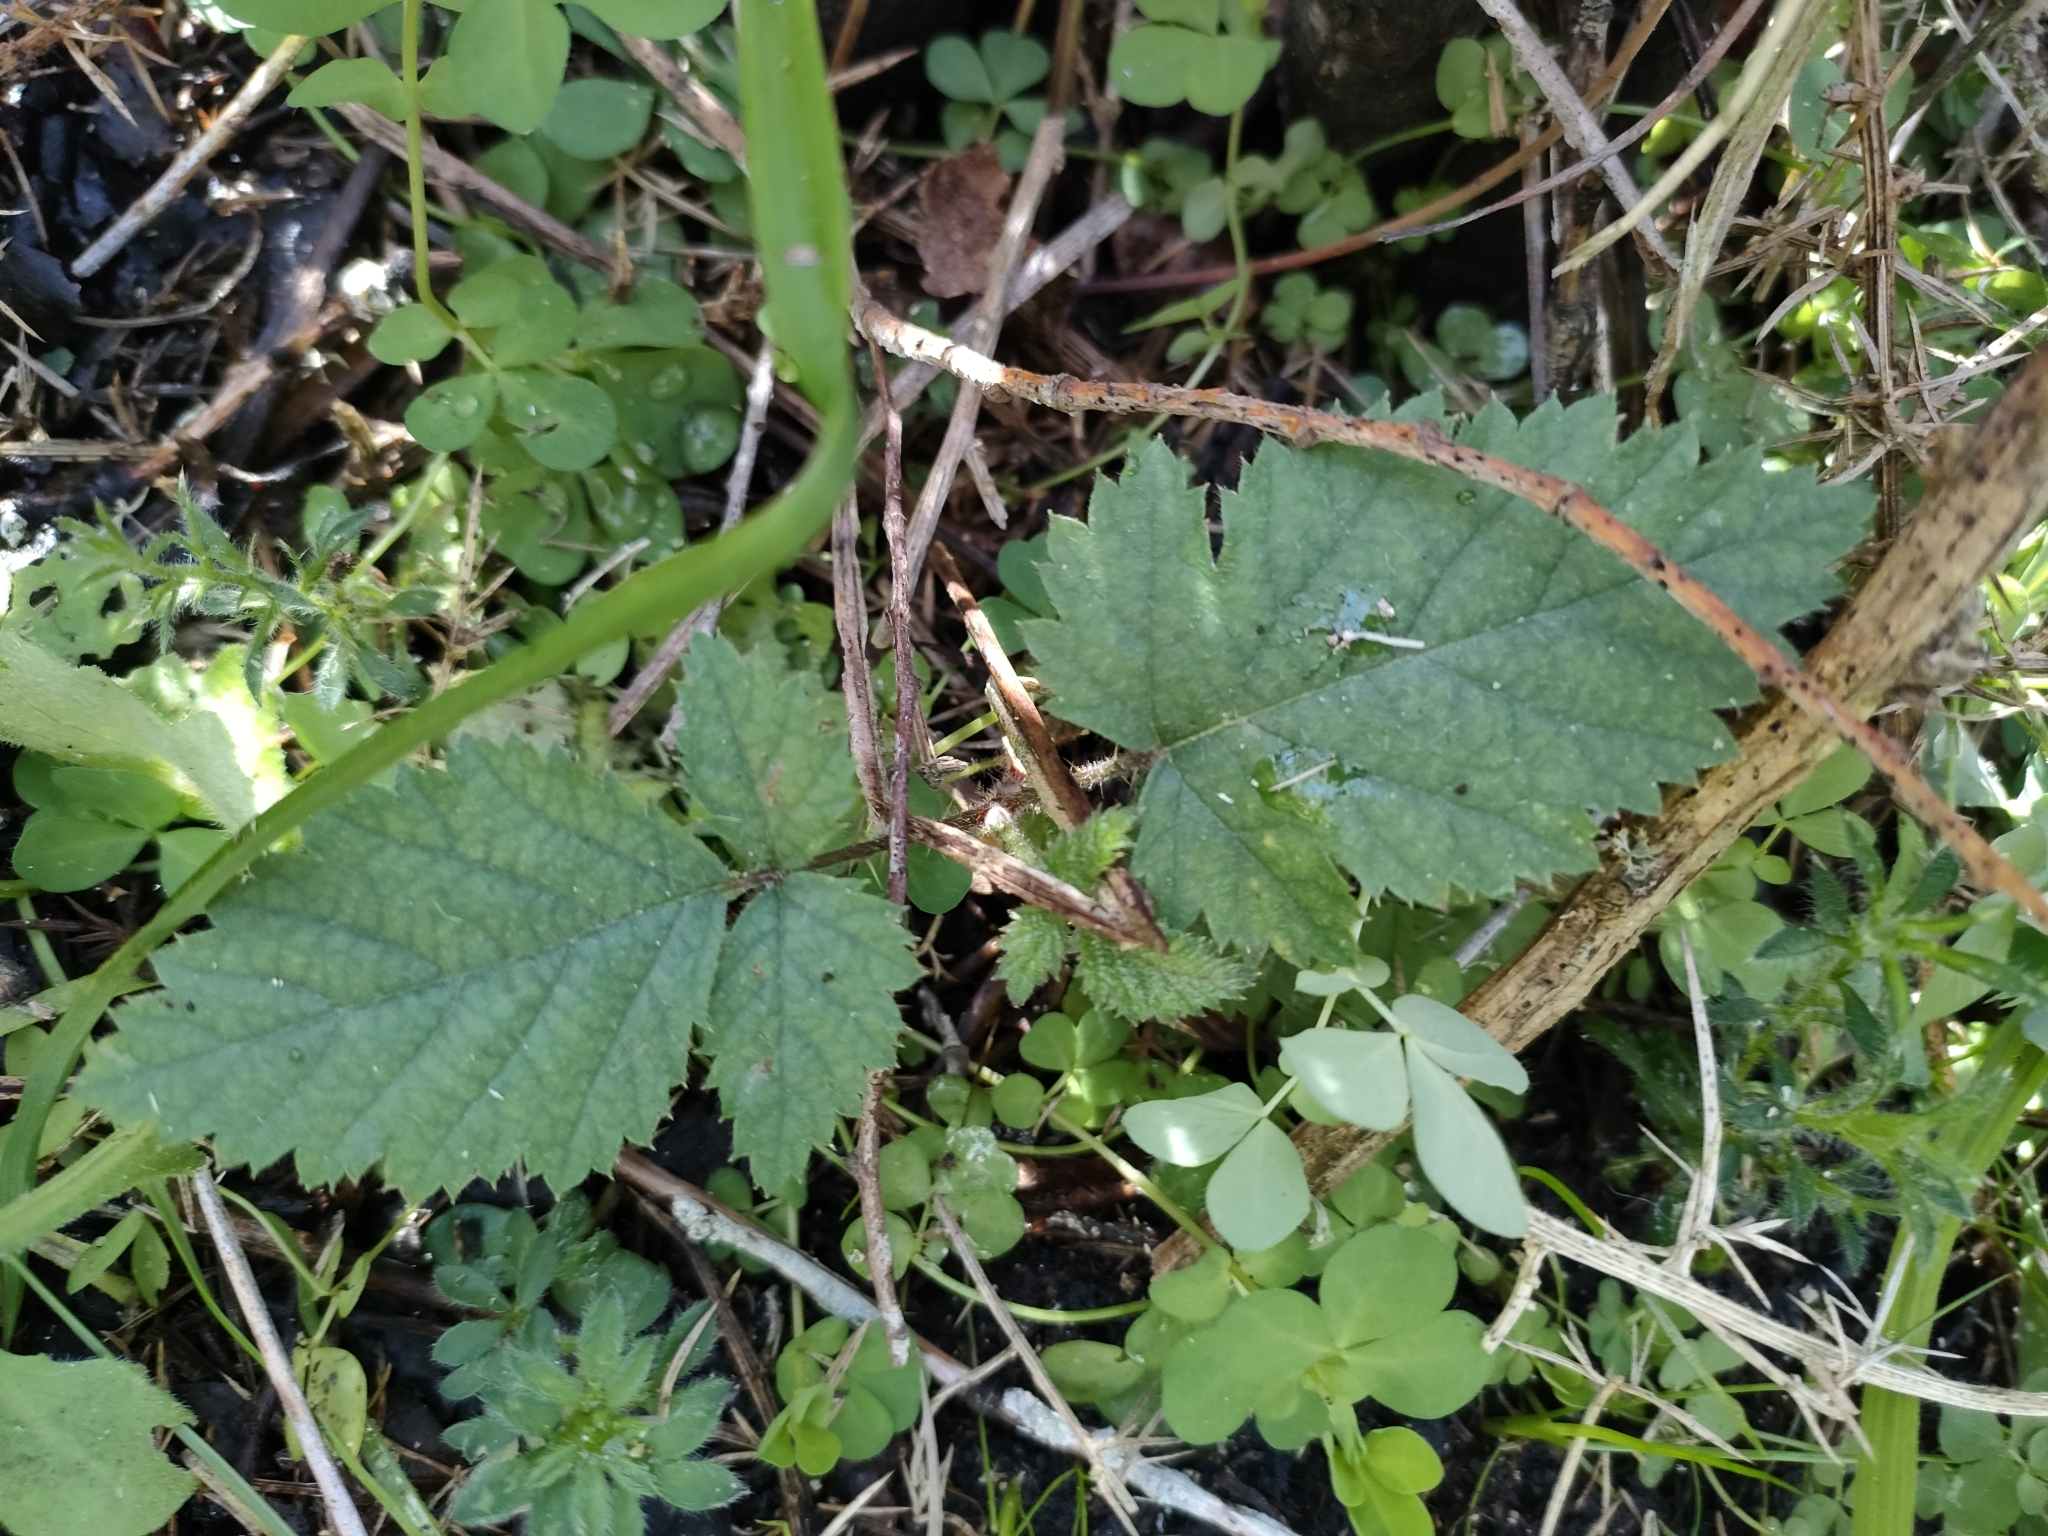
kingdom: Plantae
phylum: Tracheophyta
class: Magnoliopsida
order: Rosales
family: Rosaceae
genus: Rubus
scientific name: Rubus fruticosus
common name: Blackberry, bramble
